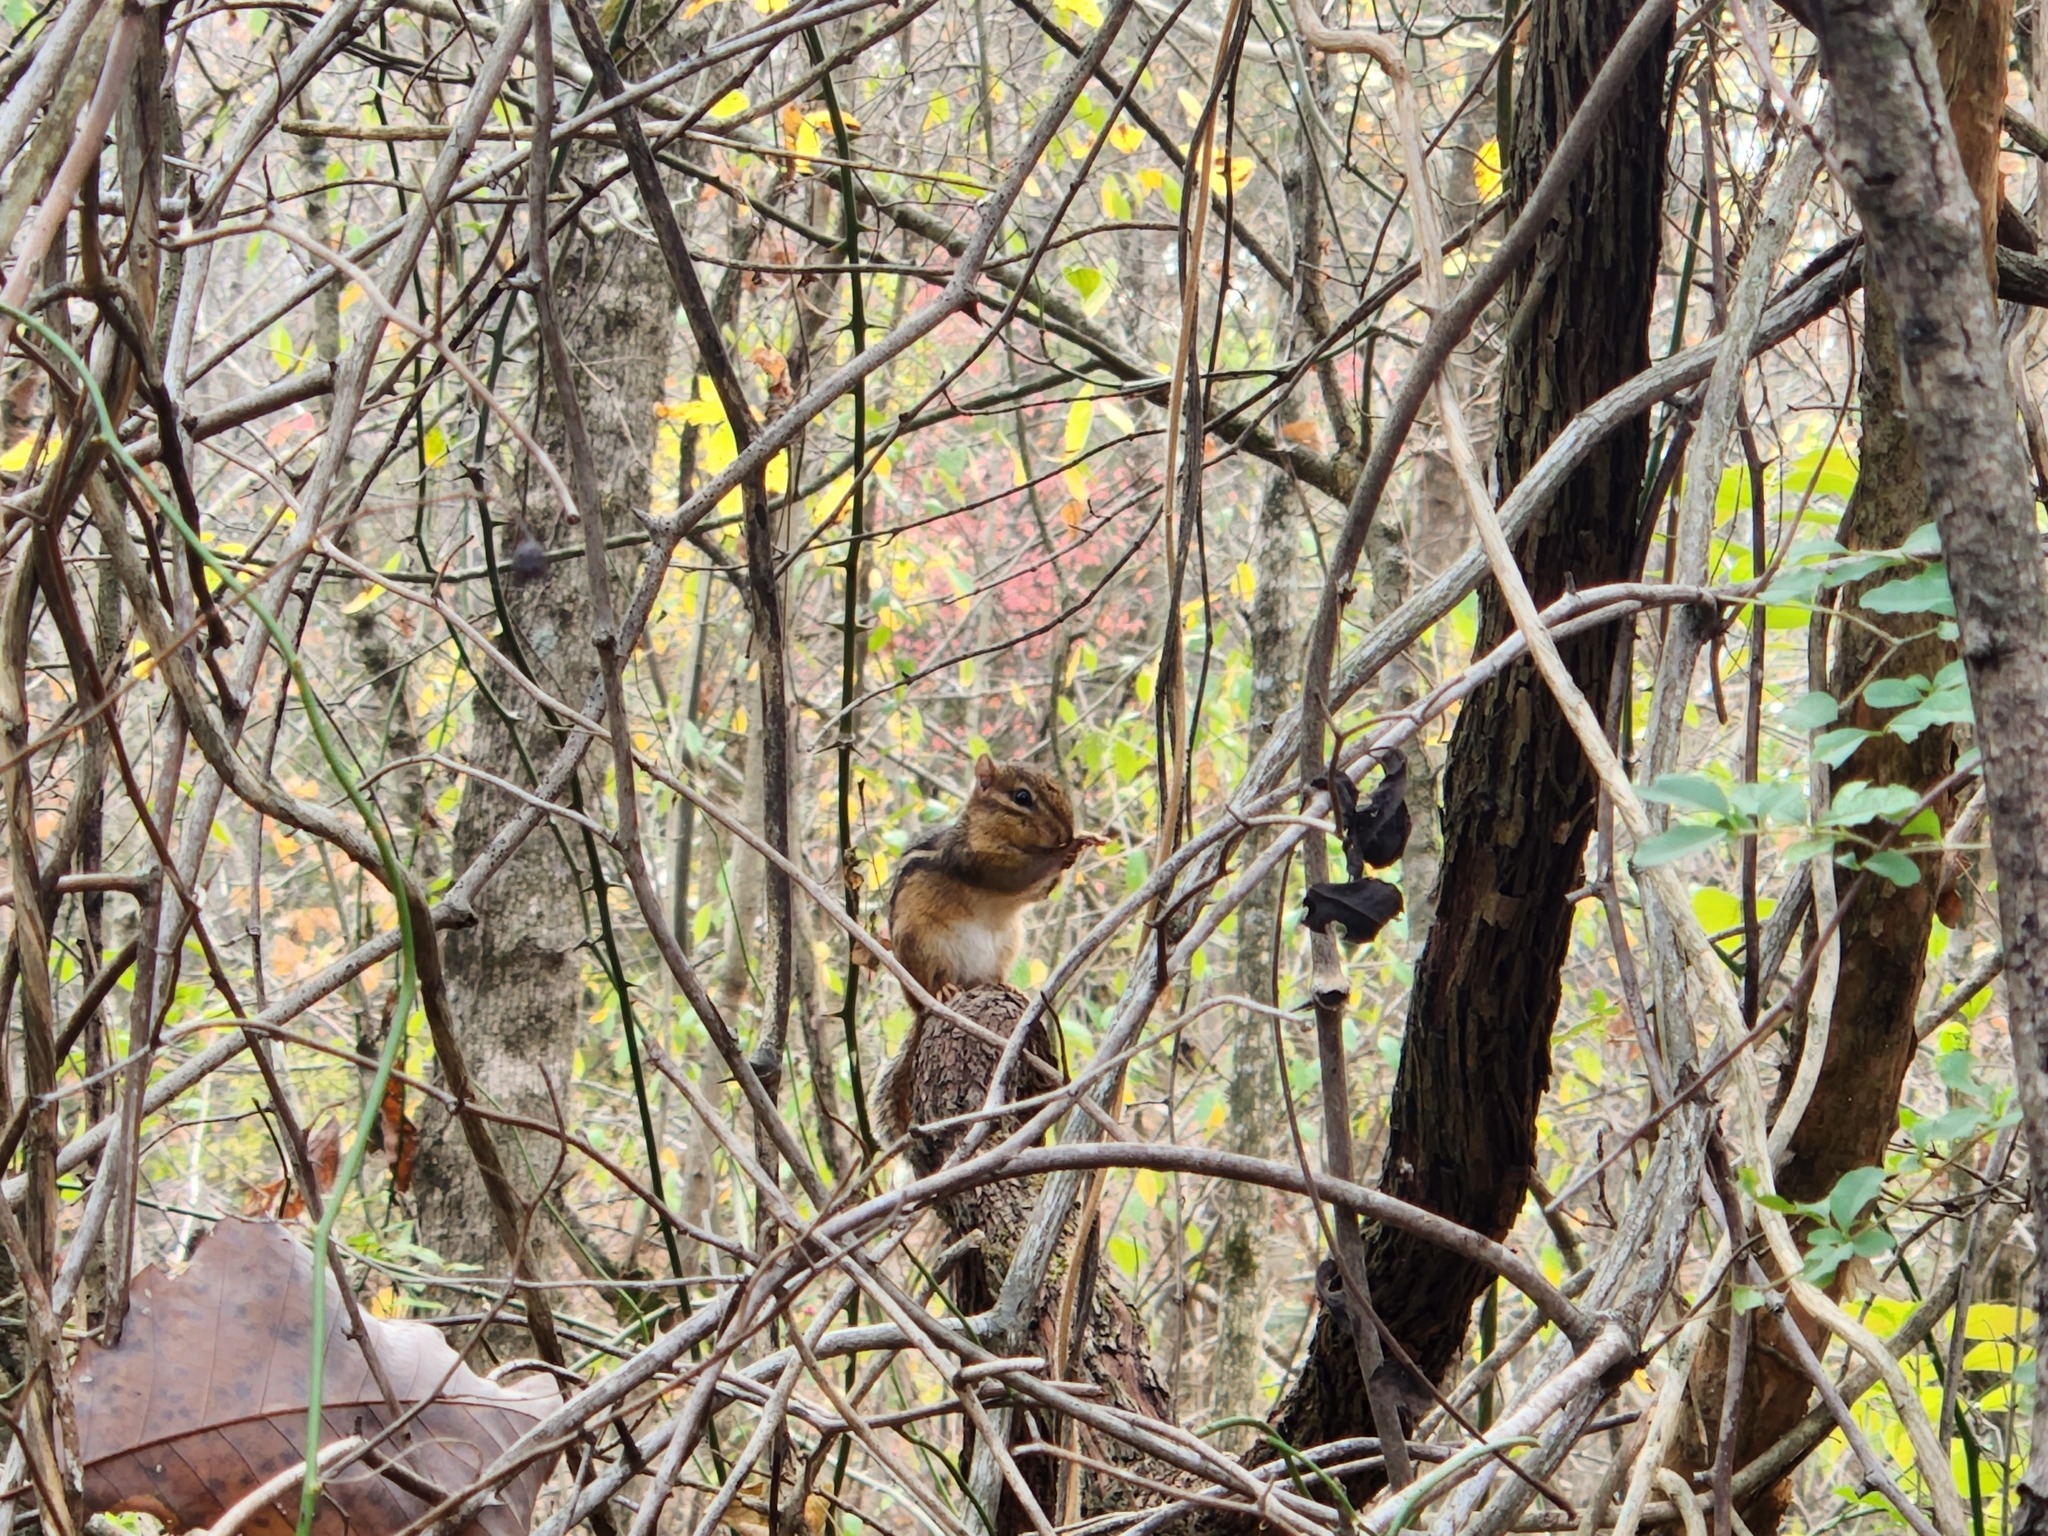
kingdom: Animalia
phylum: Chordata
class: Mammalia
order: Rodentia
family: Sciuridae
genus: Tamias
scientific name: Tamias striatus
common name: Eastern chipmunk
